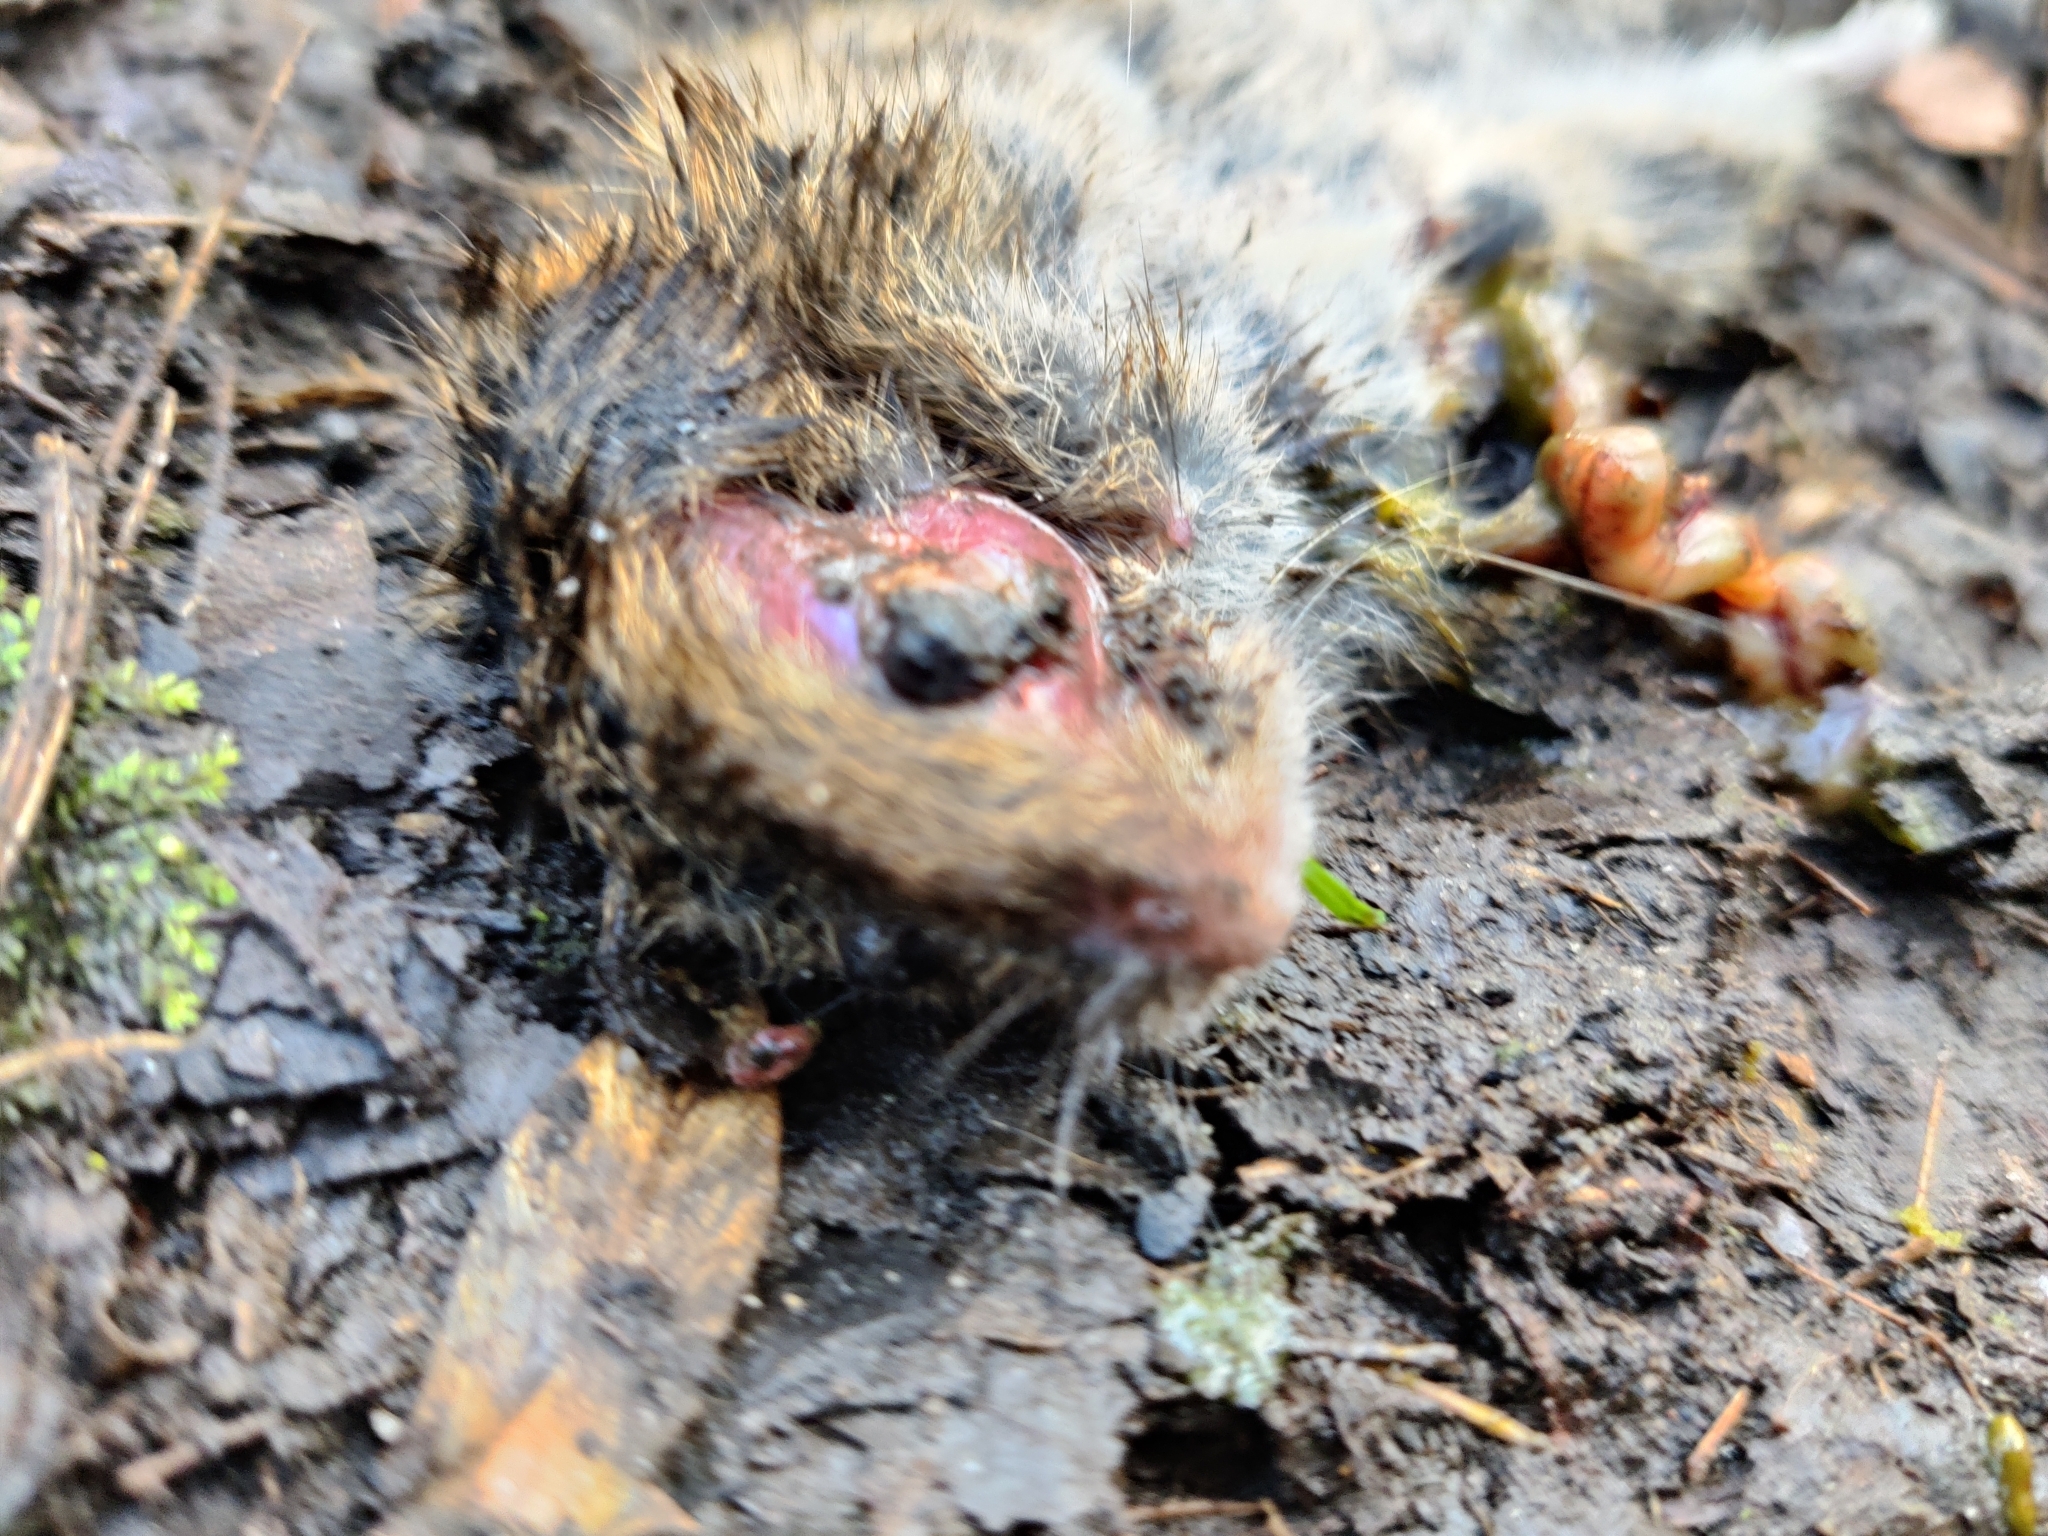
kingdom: Animalia
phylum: Chordata
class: Mammalia
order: Rodentia
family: Cricetidae
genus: Microtus
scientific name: Microtus agrestis
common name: Field vole
